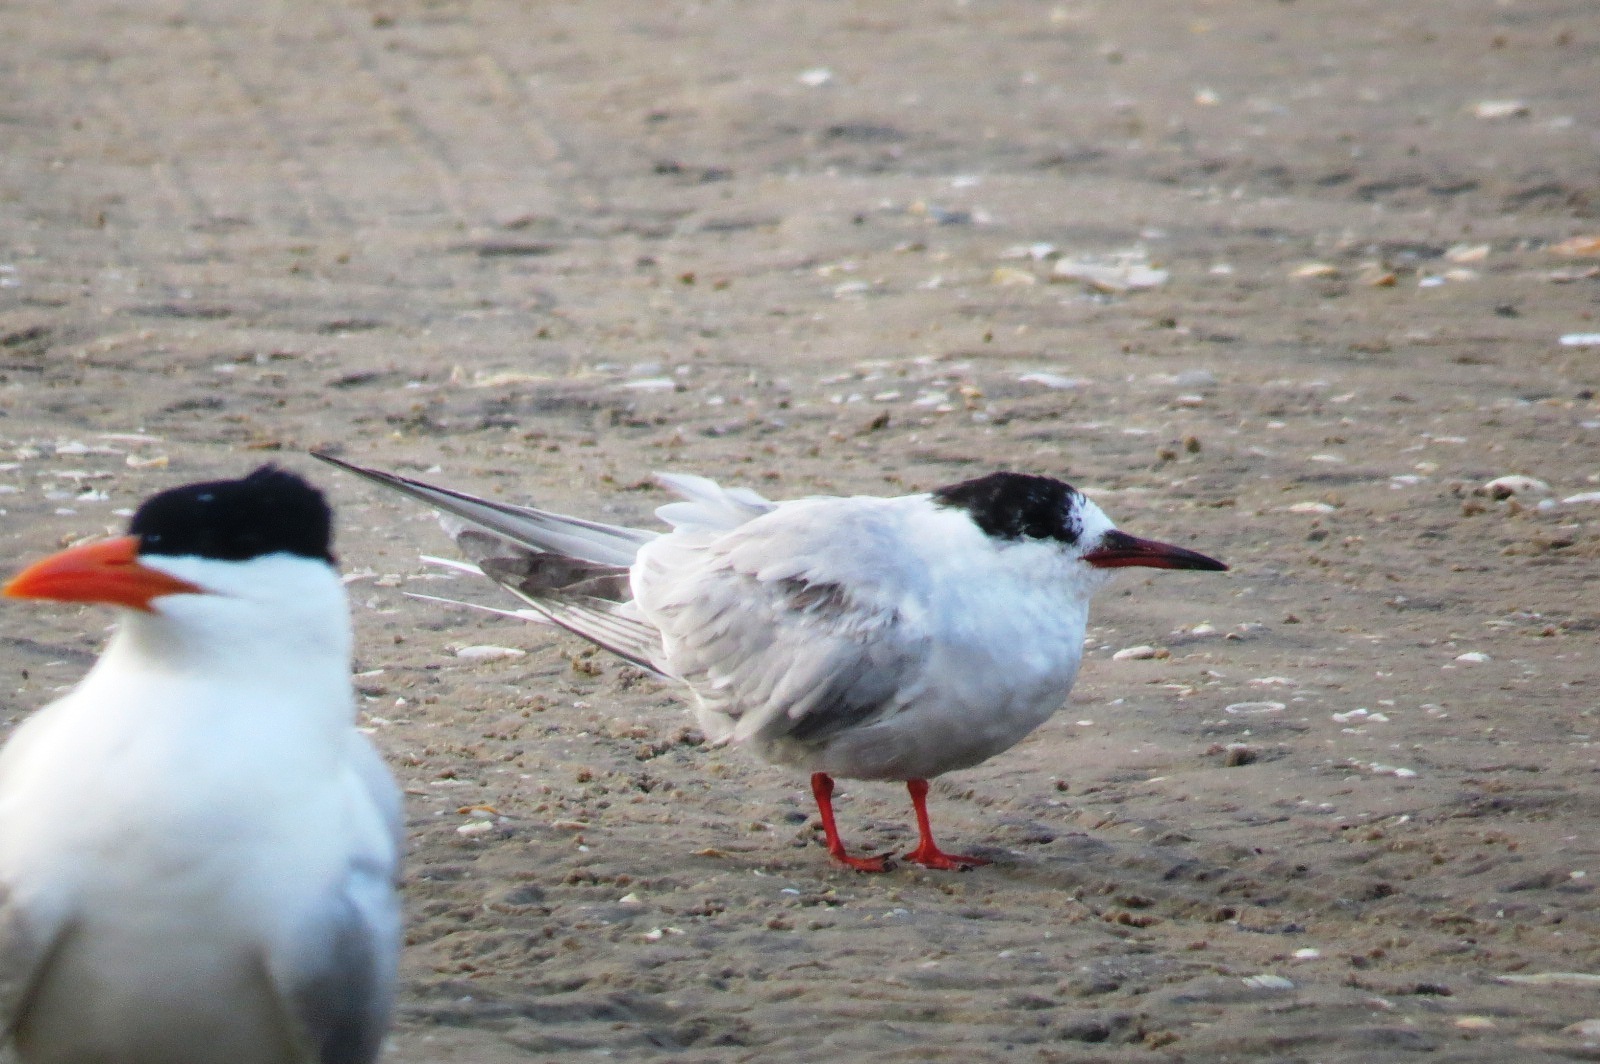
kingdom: Animalia
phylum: Chordata
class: Aves
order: Charadriiformes
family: Laridae
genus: Sterna
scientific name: Sterna hirundo
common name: Common tern
